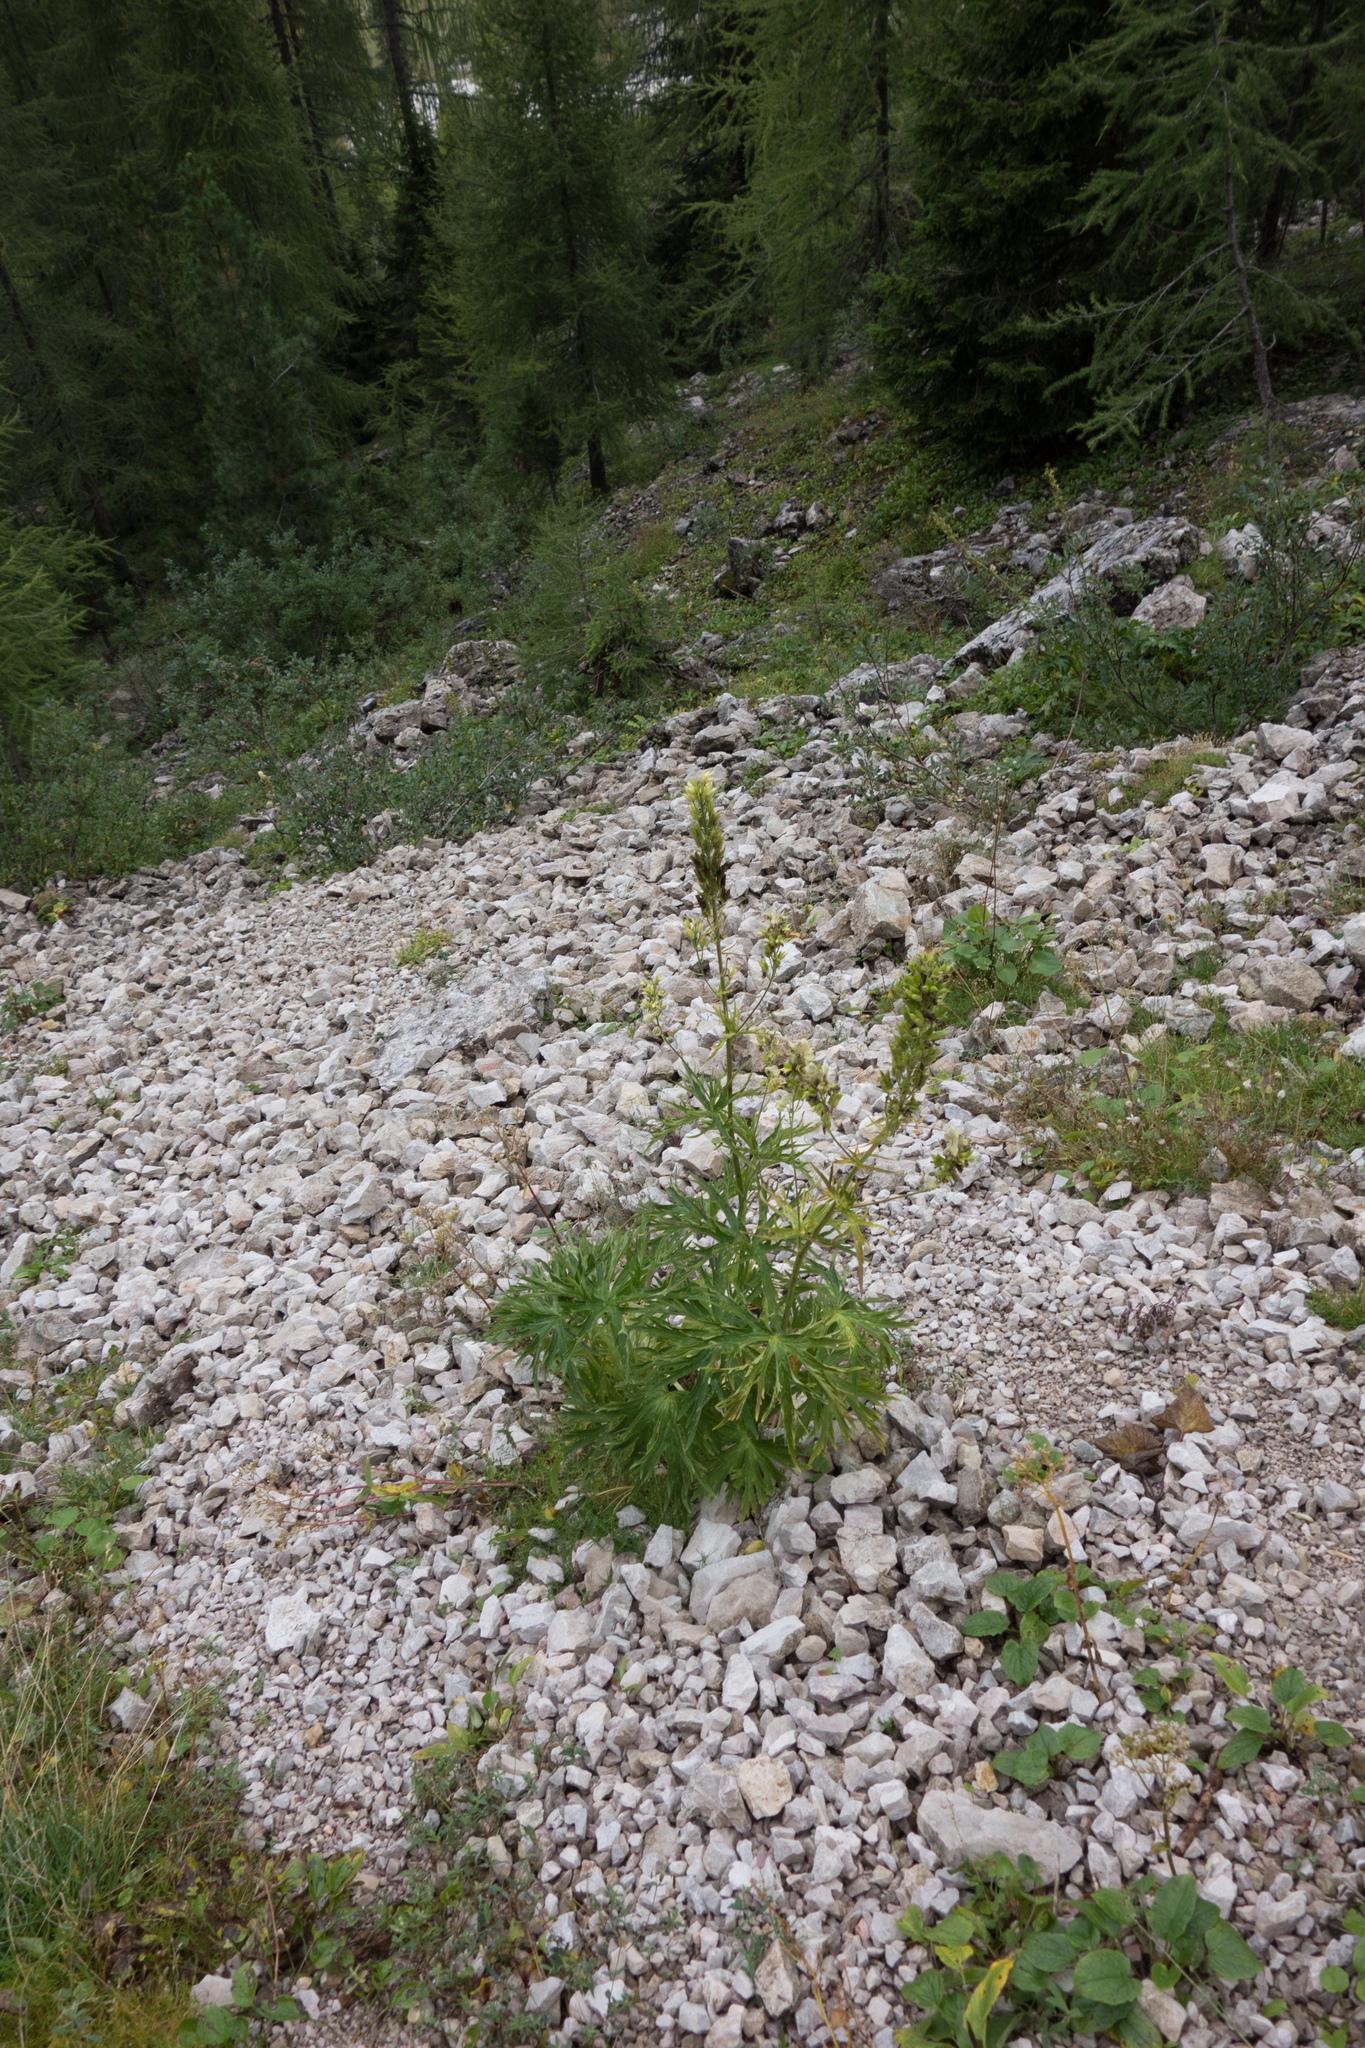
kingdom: Plantae
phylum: Tracheophyta
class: Magnoliopsida
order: Ranunculales
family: Ranunculaceae
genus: Aconitum
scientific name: Aconitum lycoctonum
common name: Wolf's-bane
